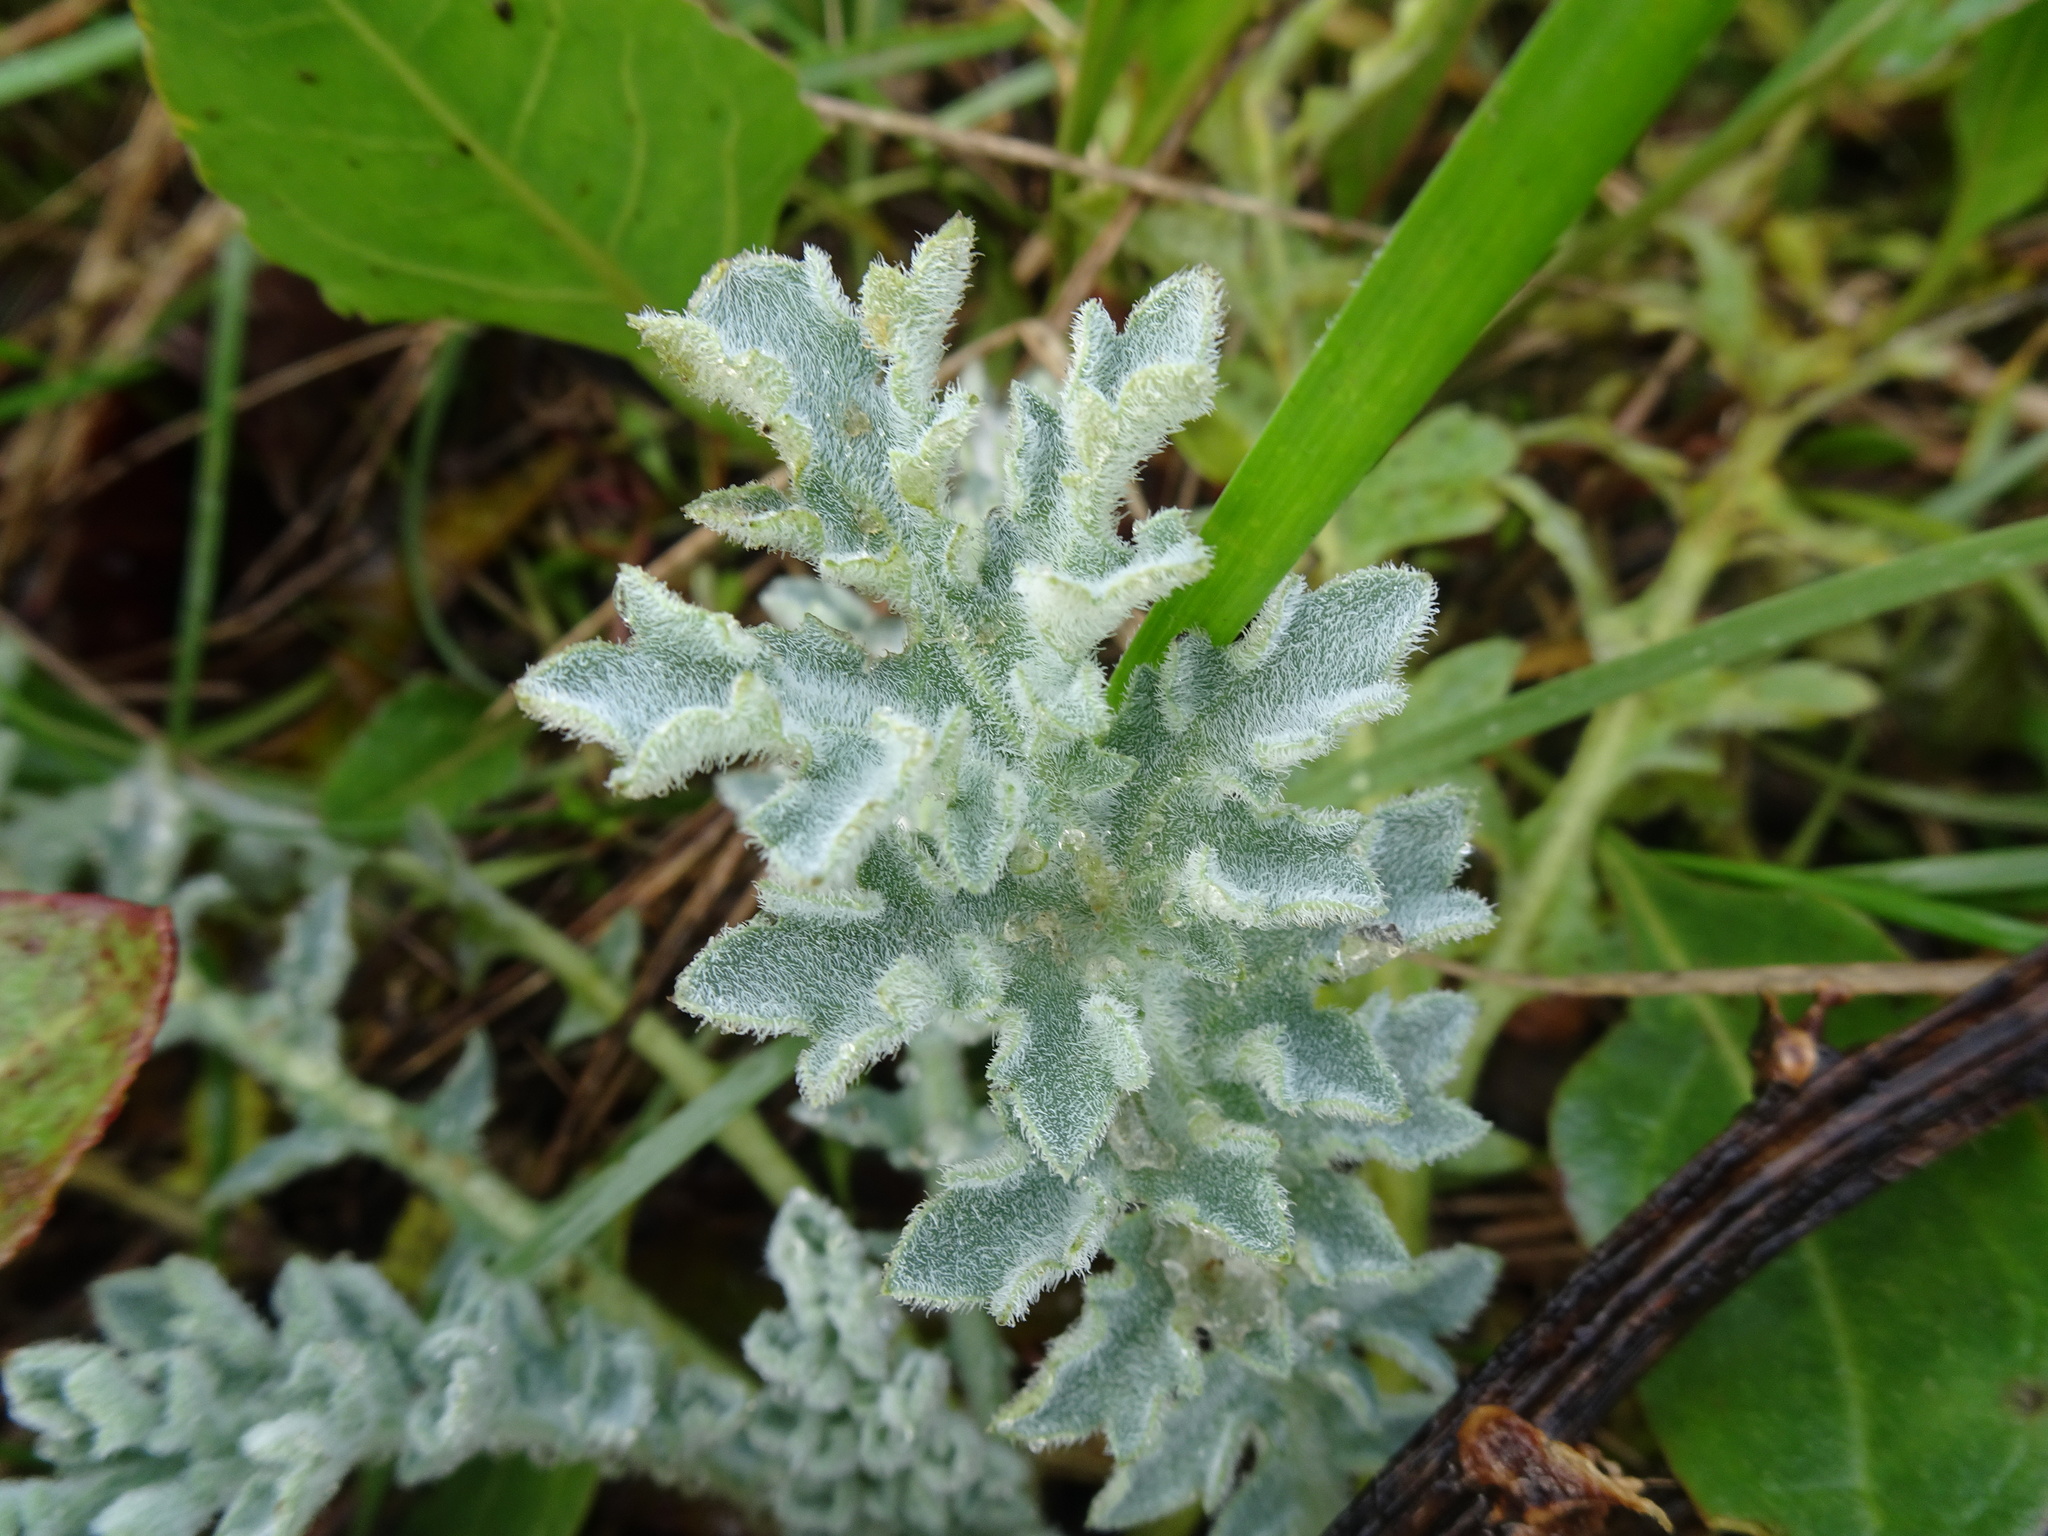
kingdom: Plantae
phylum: Tracheophyta
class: Magnoliopsida
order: Ranunculales
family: Papaveraceae
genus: Glaucium
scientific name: Glaucium flavum
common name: Yellow horned-poppy
